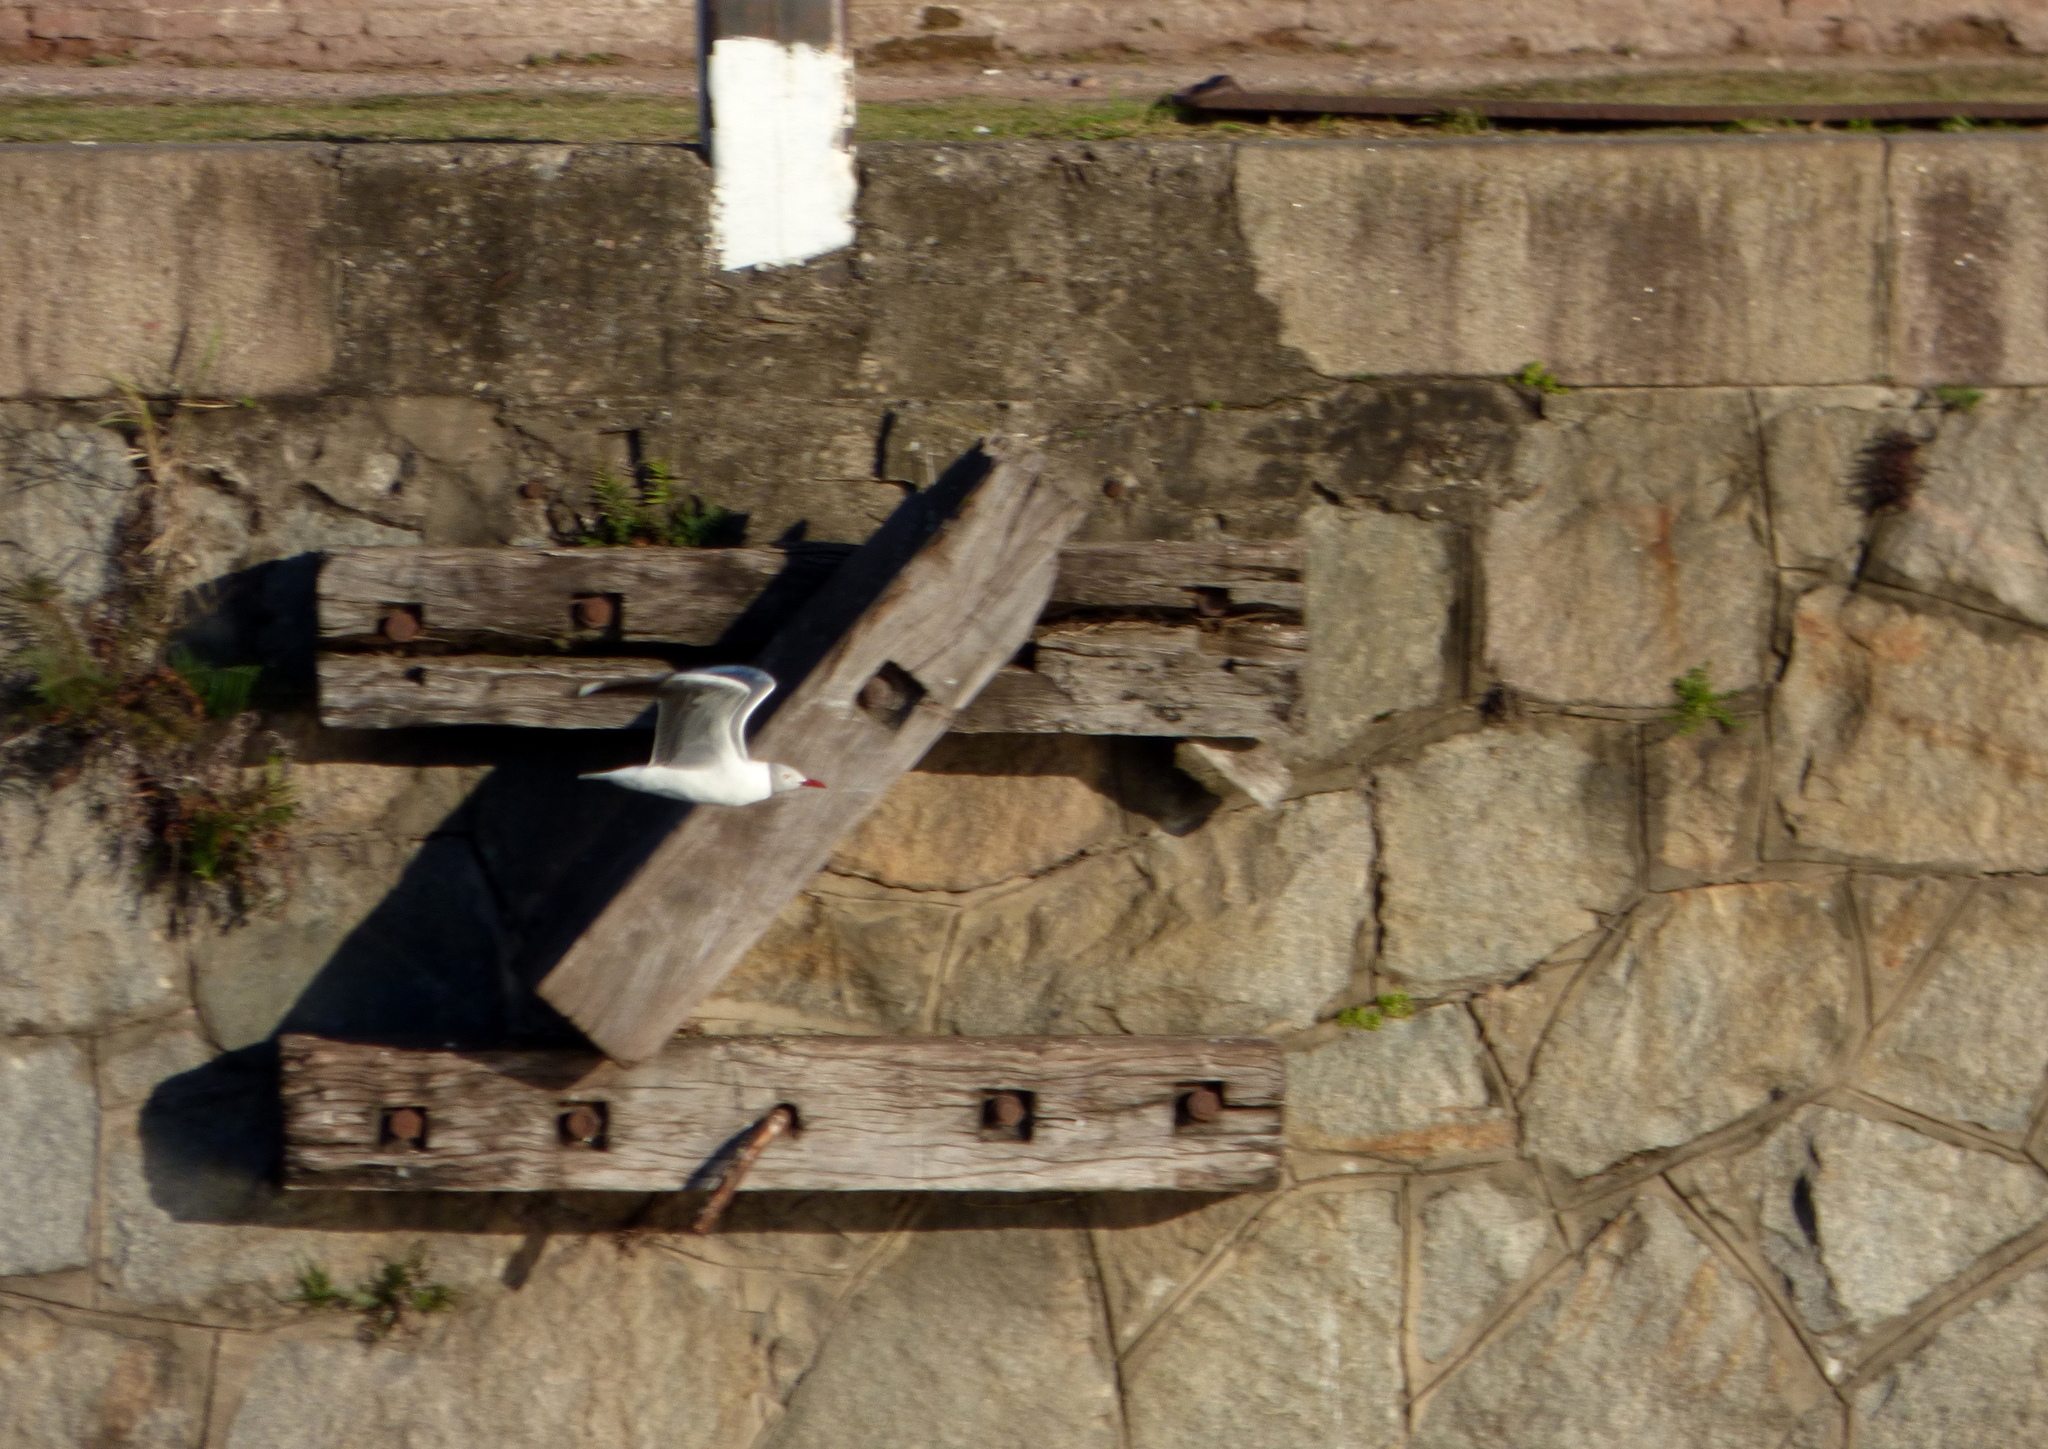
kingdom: Animalia
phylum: Chordata
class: Aves
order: Charadriiformes
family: Laridae
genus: Chroicocephalus
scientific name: Chroicocephalus cirrocephalus
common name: Grey-headed gull
